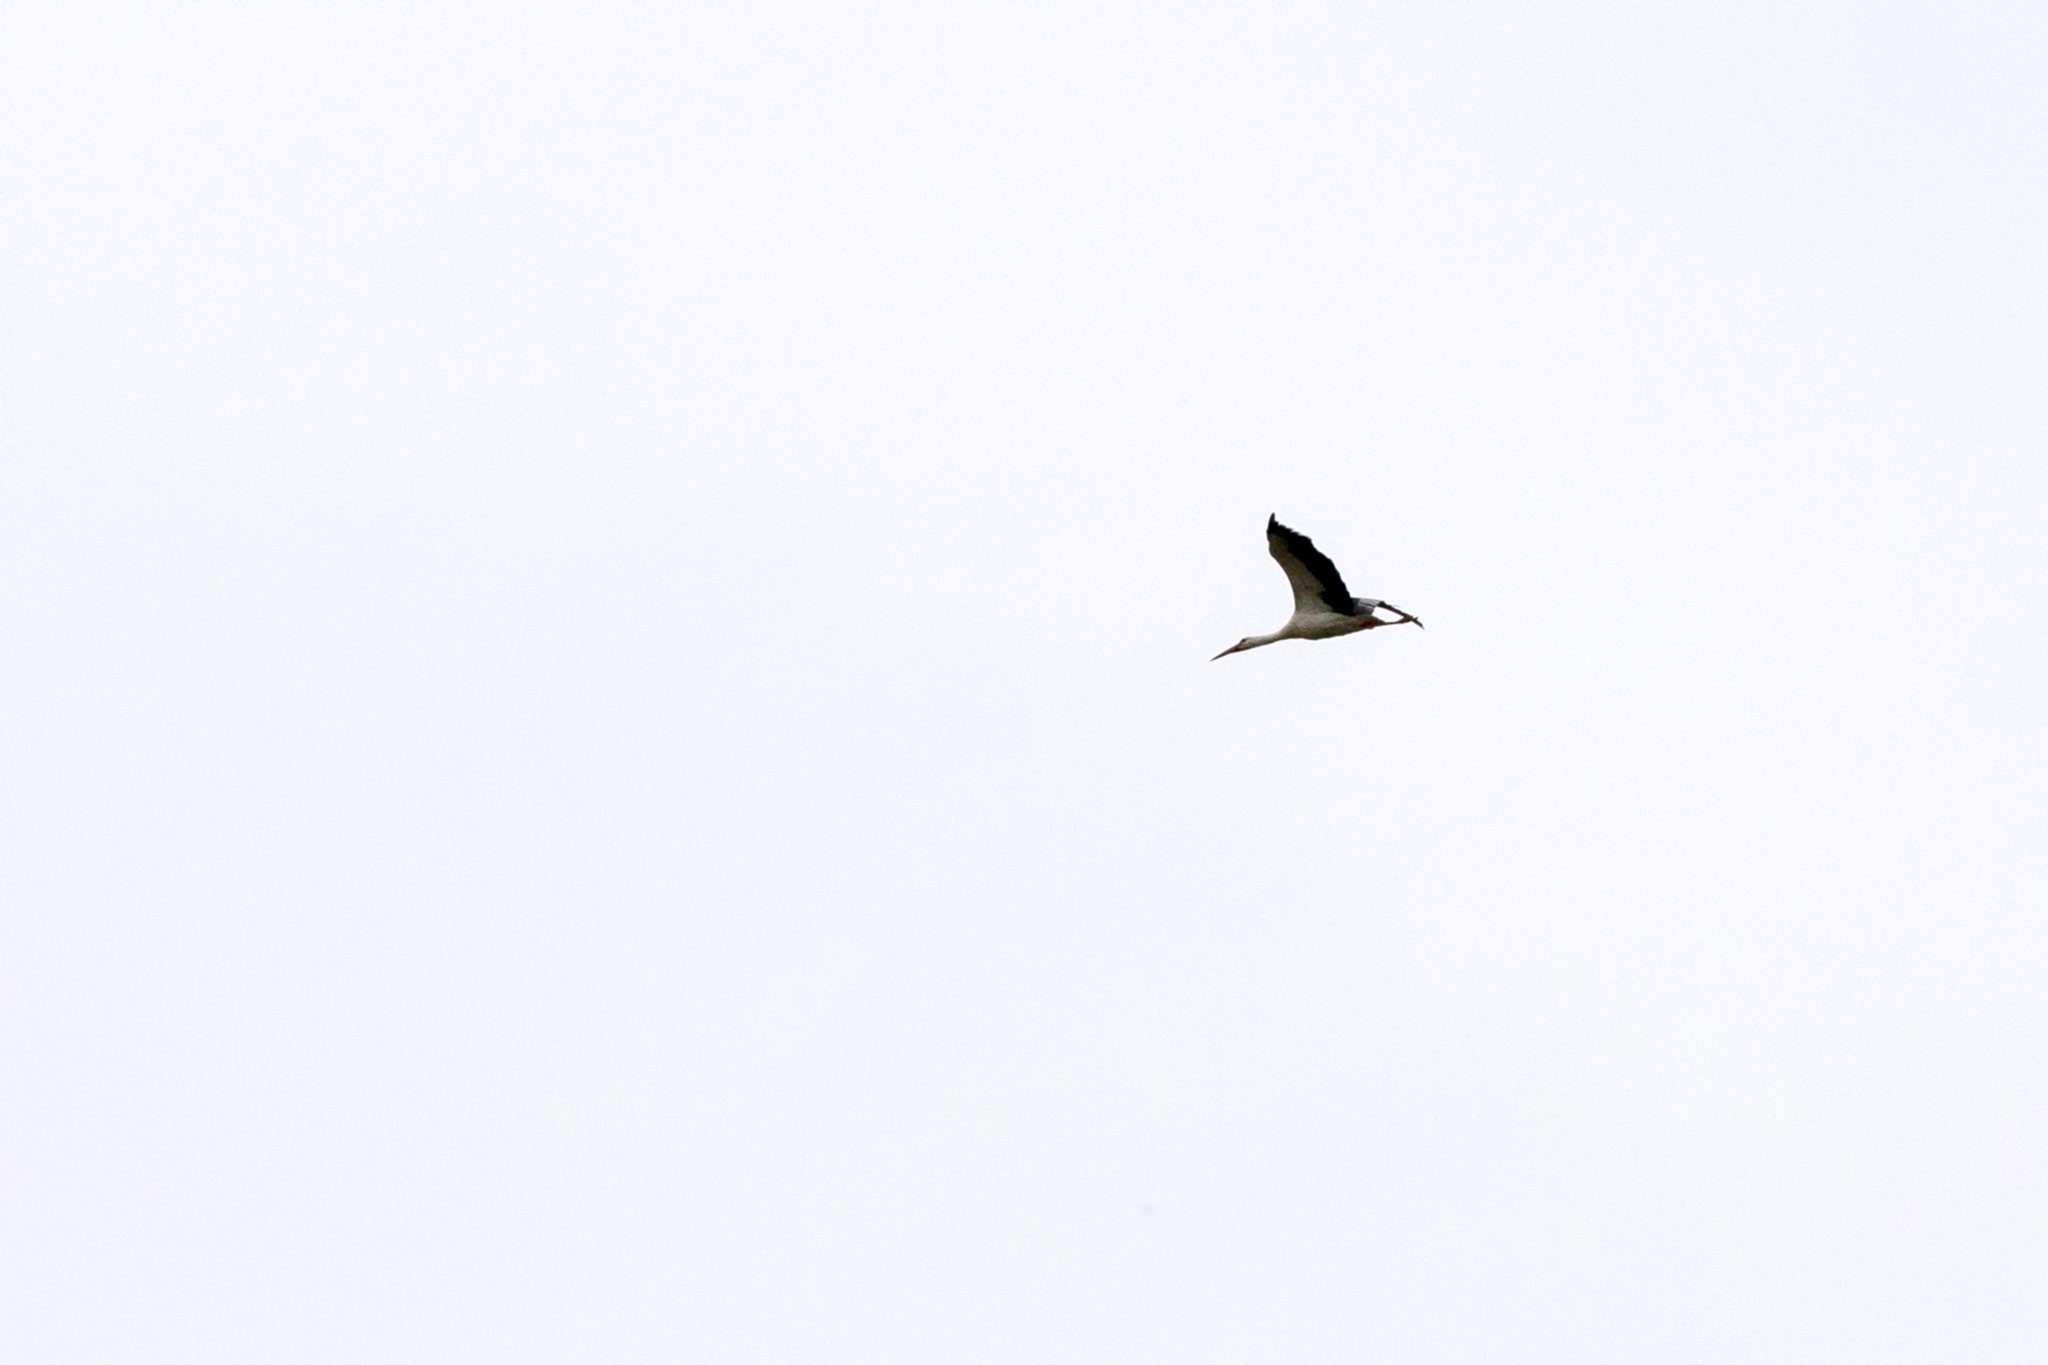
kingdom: Animalia
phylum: Chordata
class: Aves
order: Ciconiiformes
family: Ciconiidae
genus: Ciconia
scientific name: Ciconia ciconia
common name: White stork
